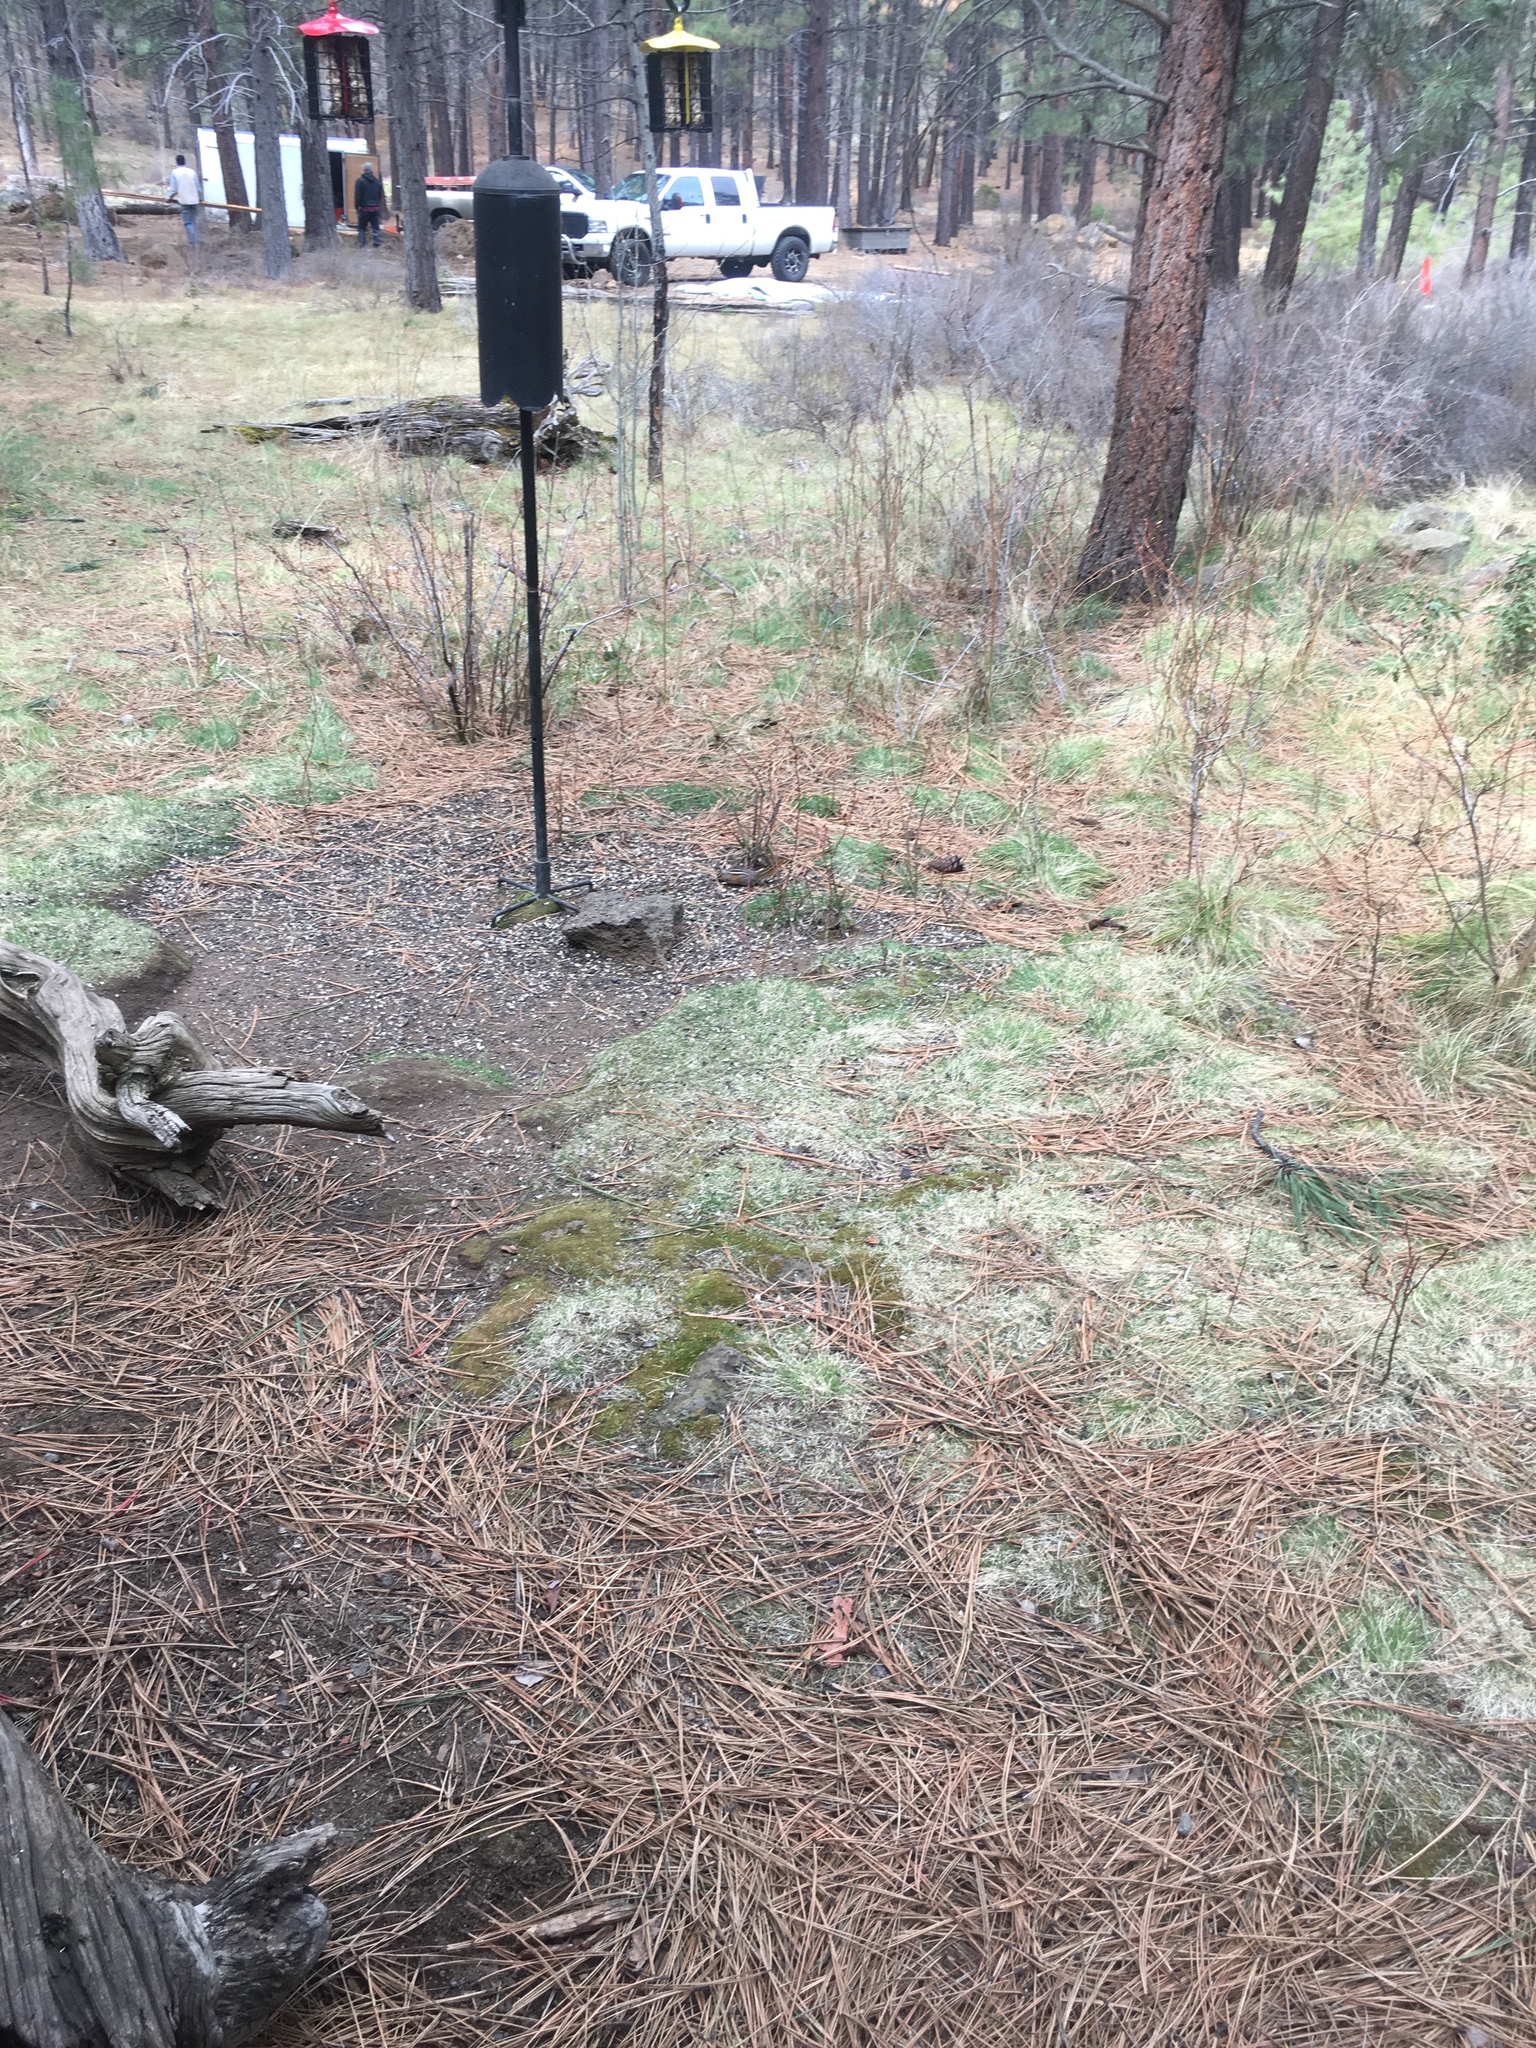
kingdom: Animalia
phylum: Chordata
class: Mammalia
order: Rodentia
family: Sciuridae
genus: Tamias
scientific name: Tamias amoenus
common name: Yellow-pine chipmunk
